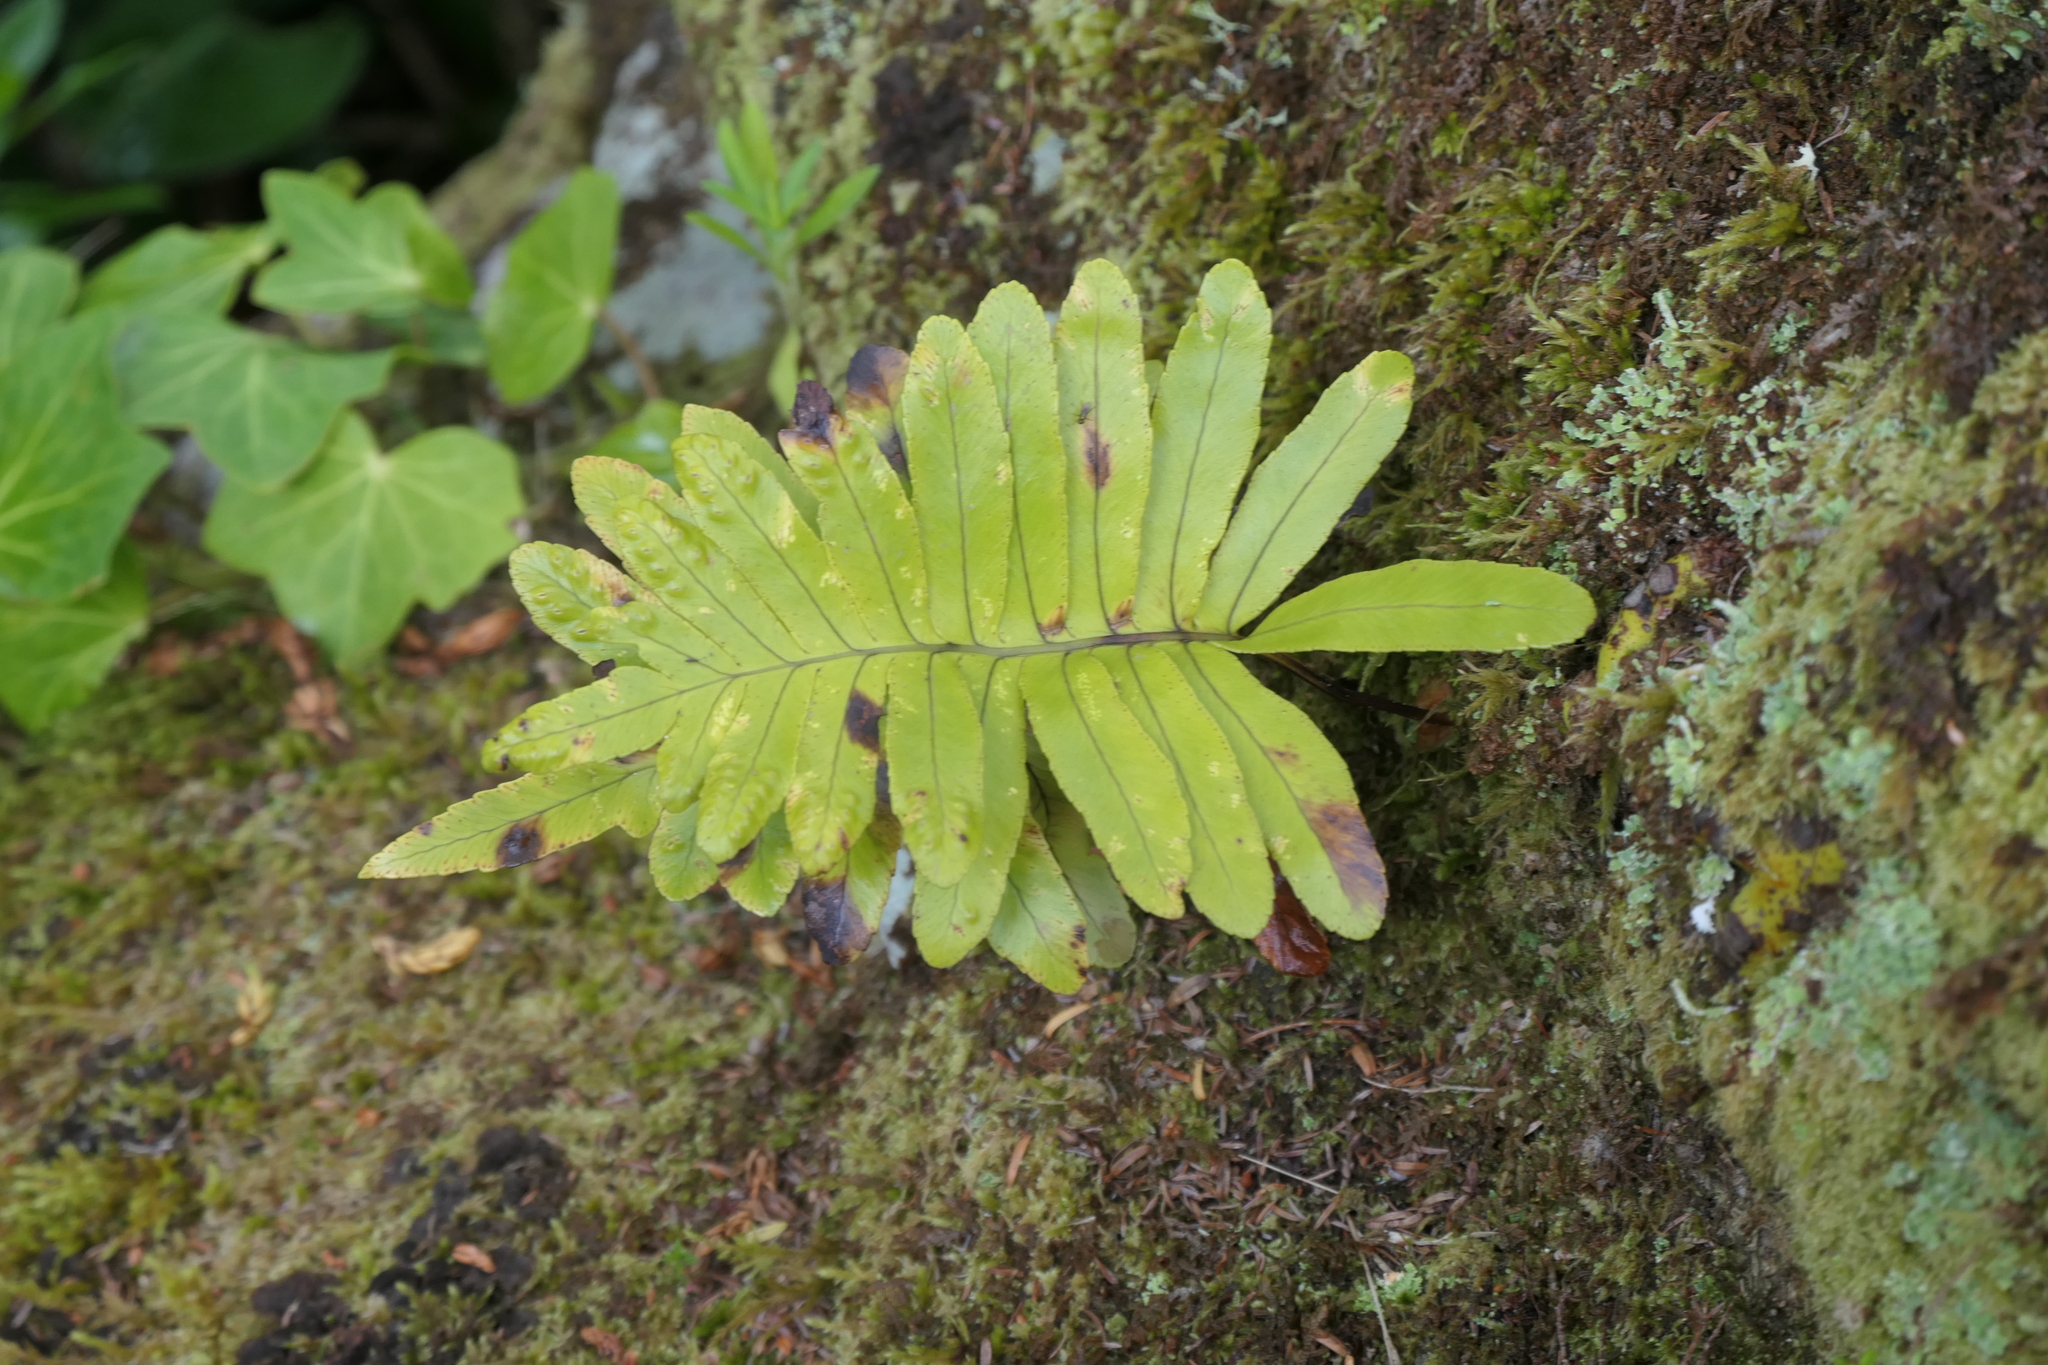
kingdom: Plantae
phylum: Tracheophyta
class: Polypodiopsida
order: Polypodiales
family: Polypodiaceae
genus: Polypodium
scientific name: Polypodium macaronesicum
